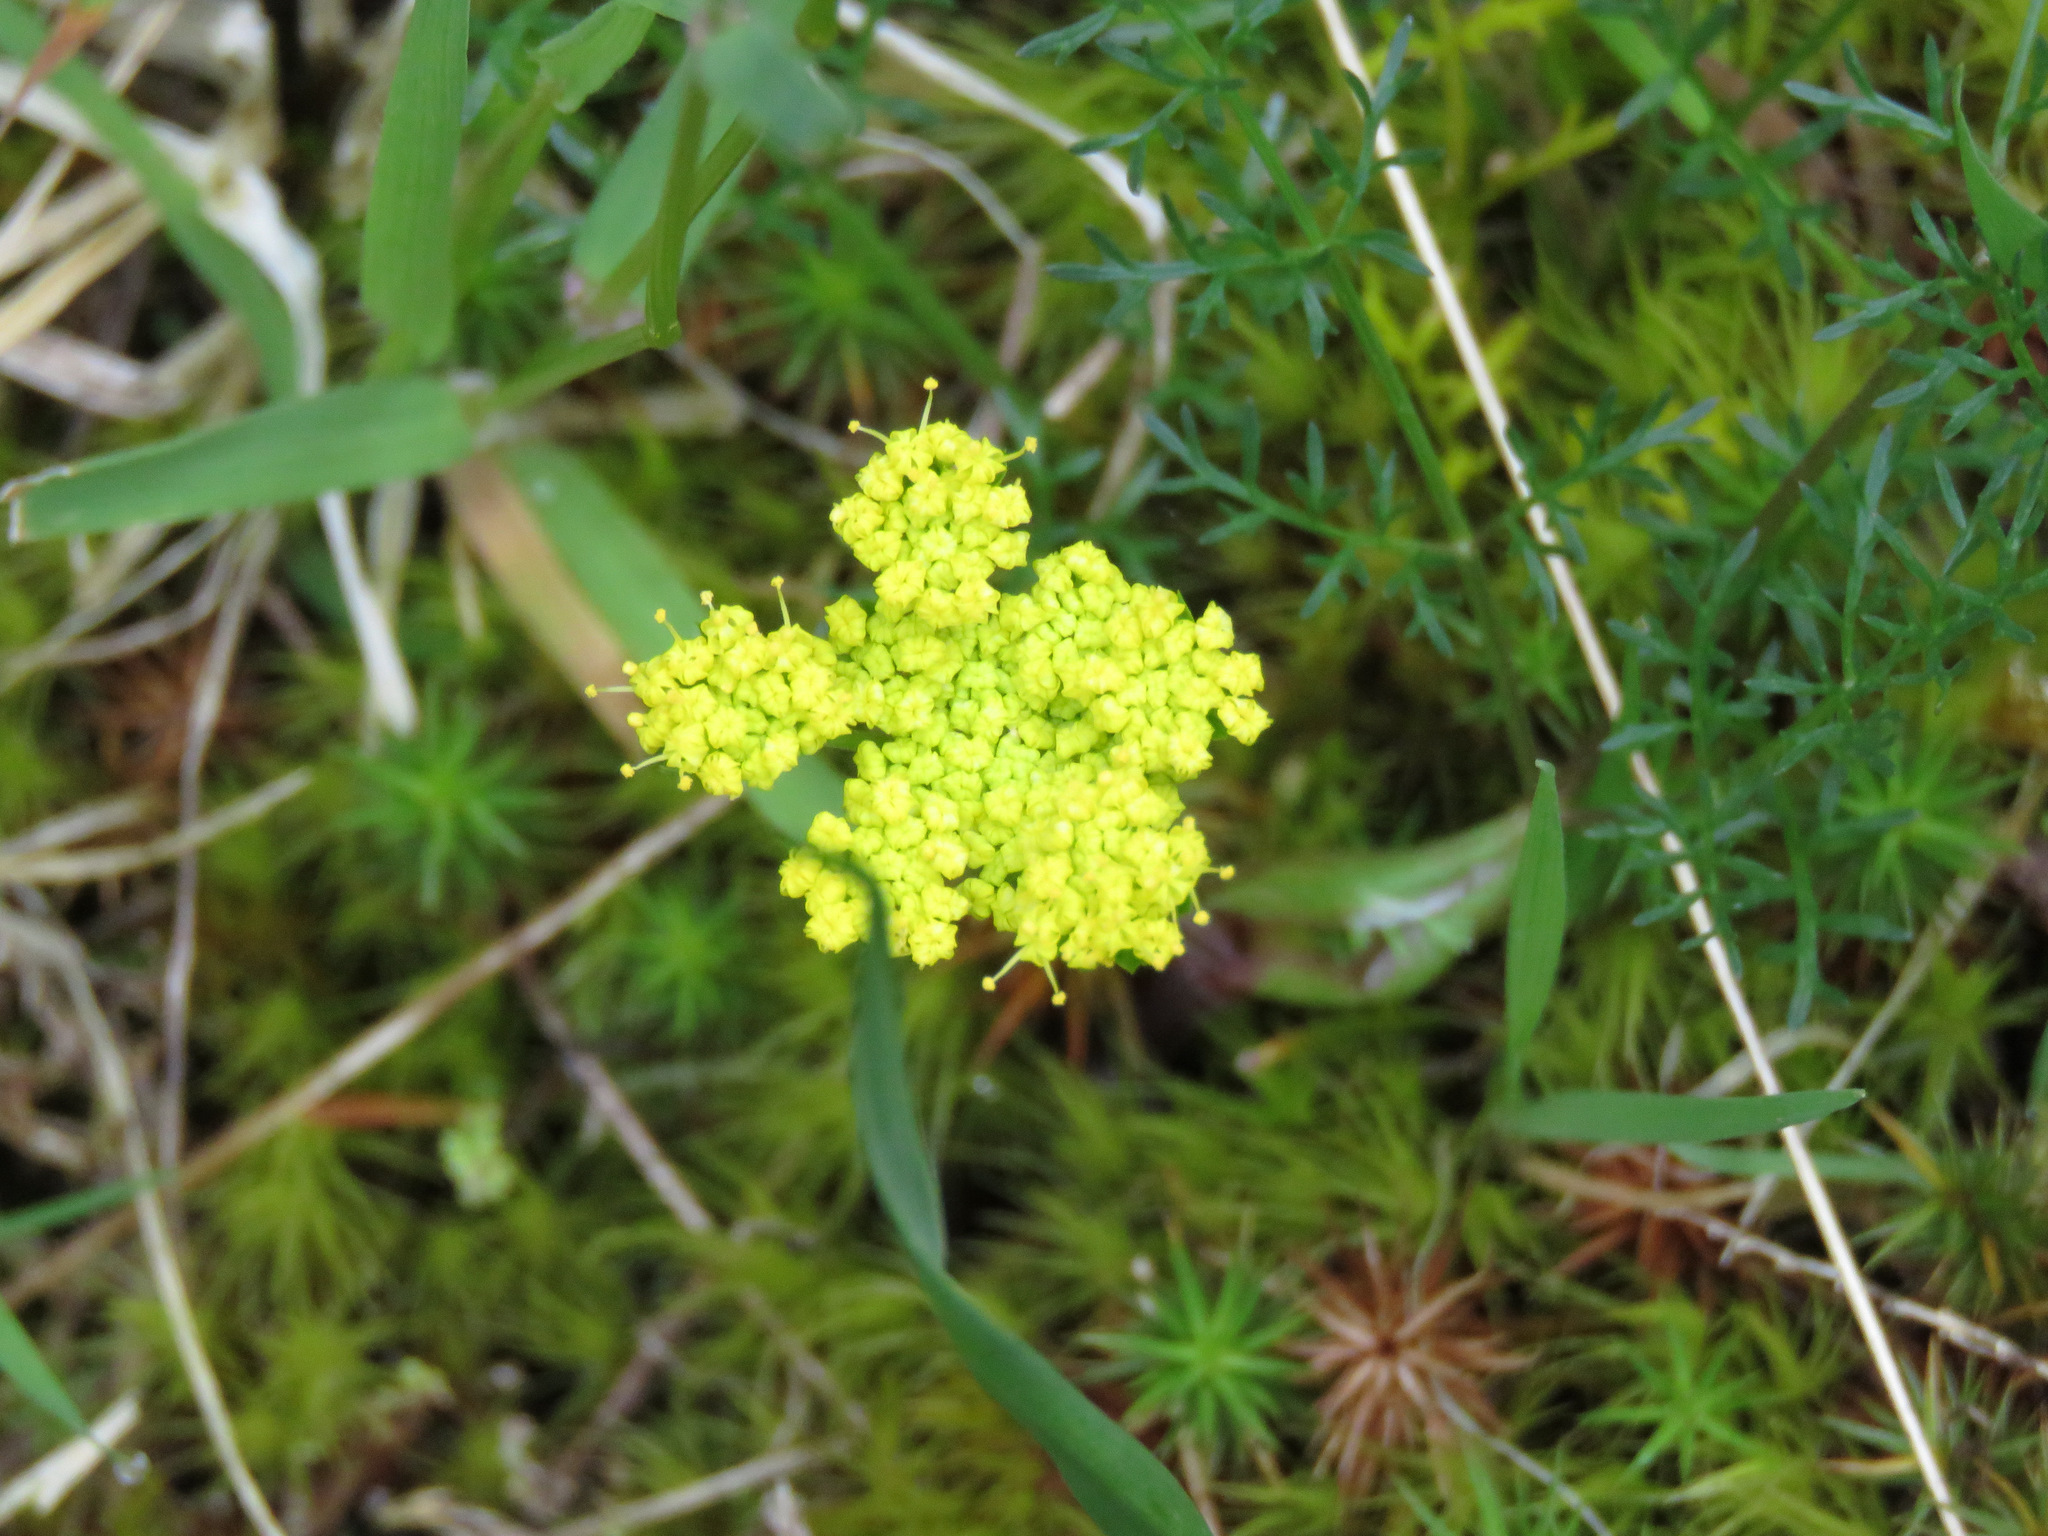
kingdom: Plantae
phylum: Tracheophyta
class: Magnoliopsida
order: Apiales
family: Apiaceae
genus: Lomatium
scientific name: Lomatium utriculatum
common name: Fine-leaf desert-parsley
